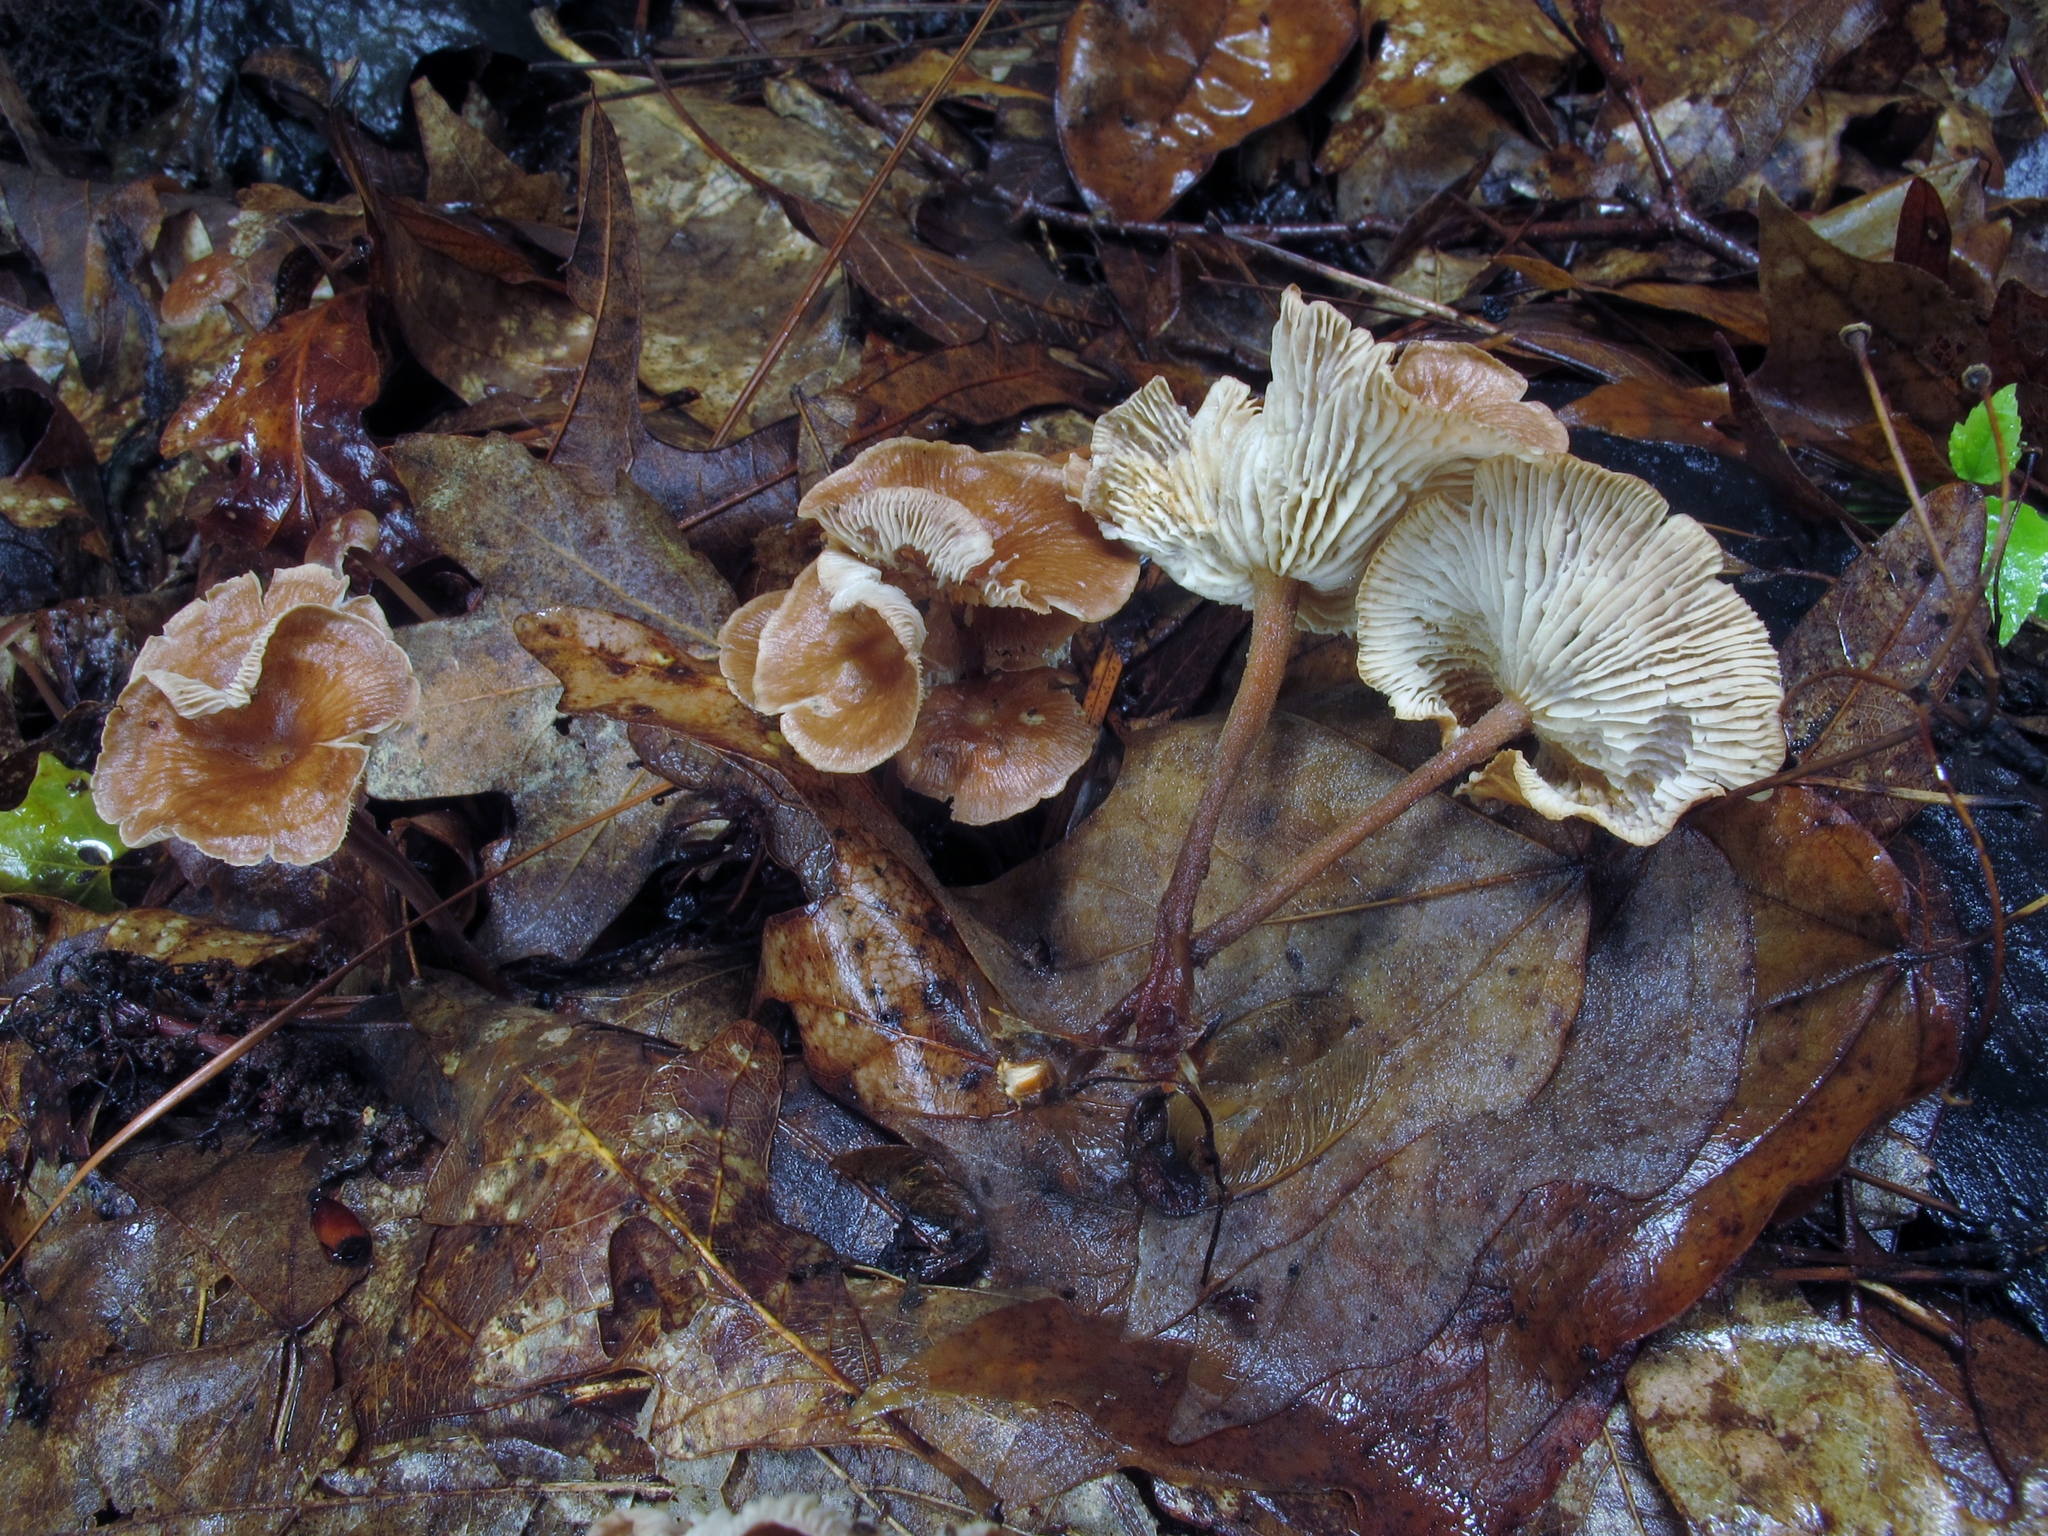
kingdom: Fungi
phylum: Basidiomycota
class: Agaricomycetes
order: Agaricales
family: Omphalotaceae
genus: Collybiopsis
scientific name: Collybiopsis subnuda
